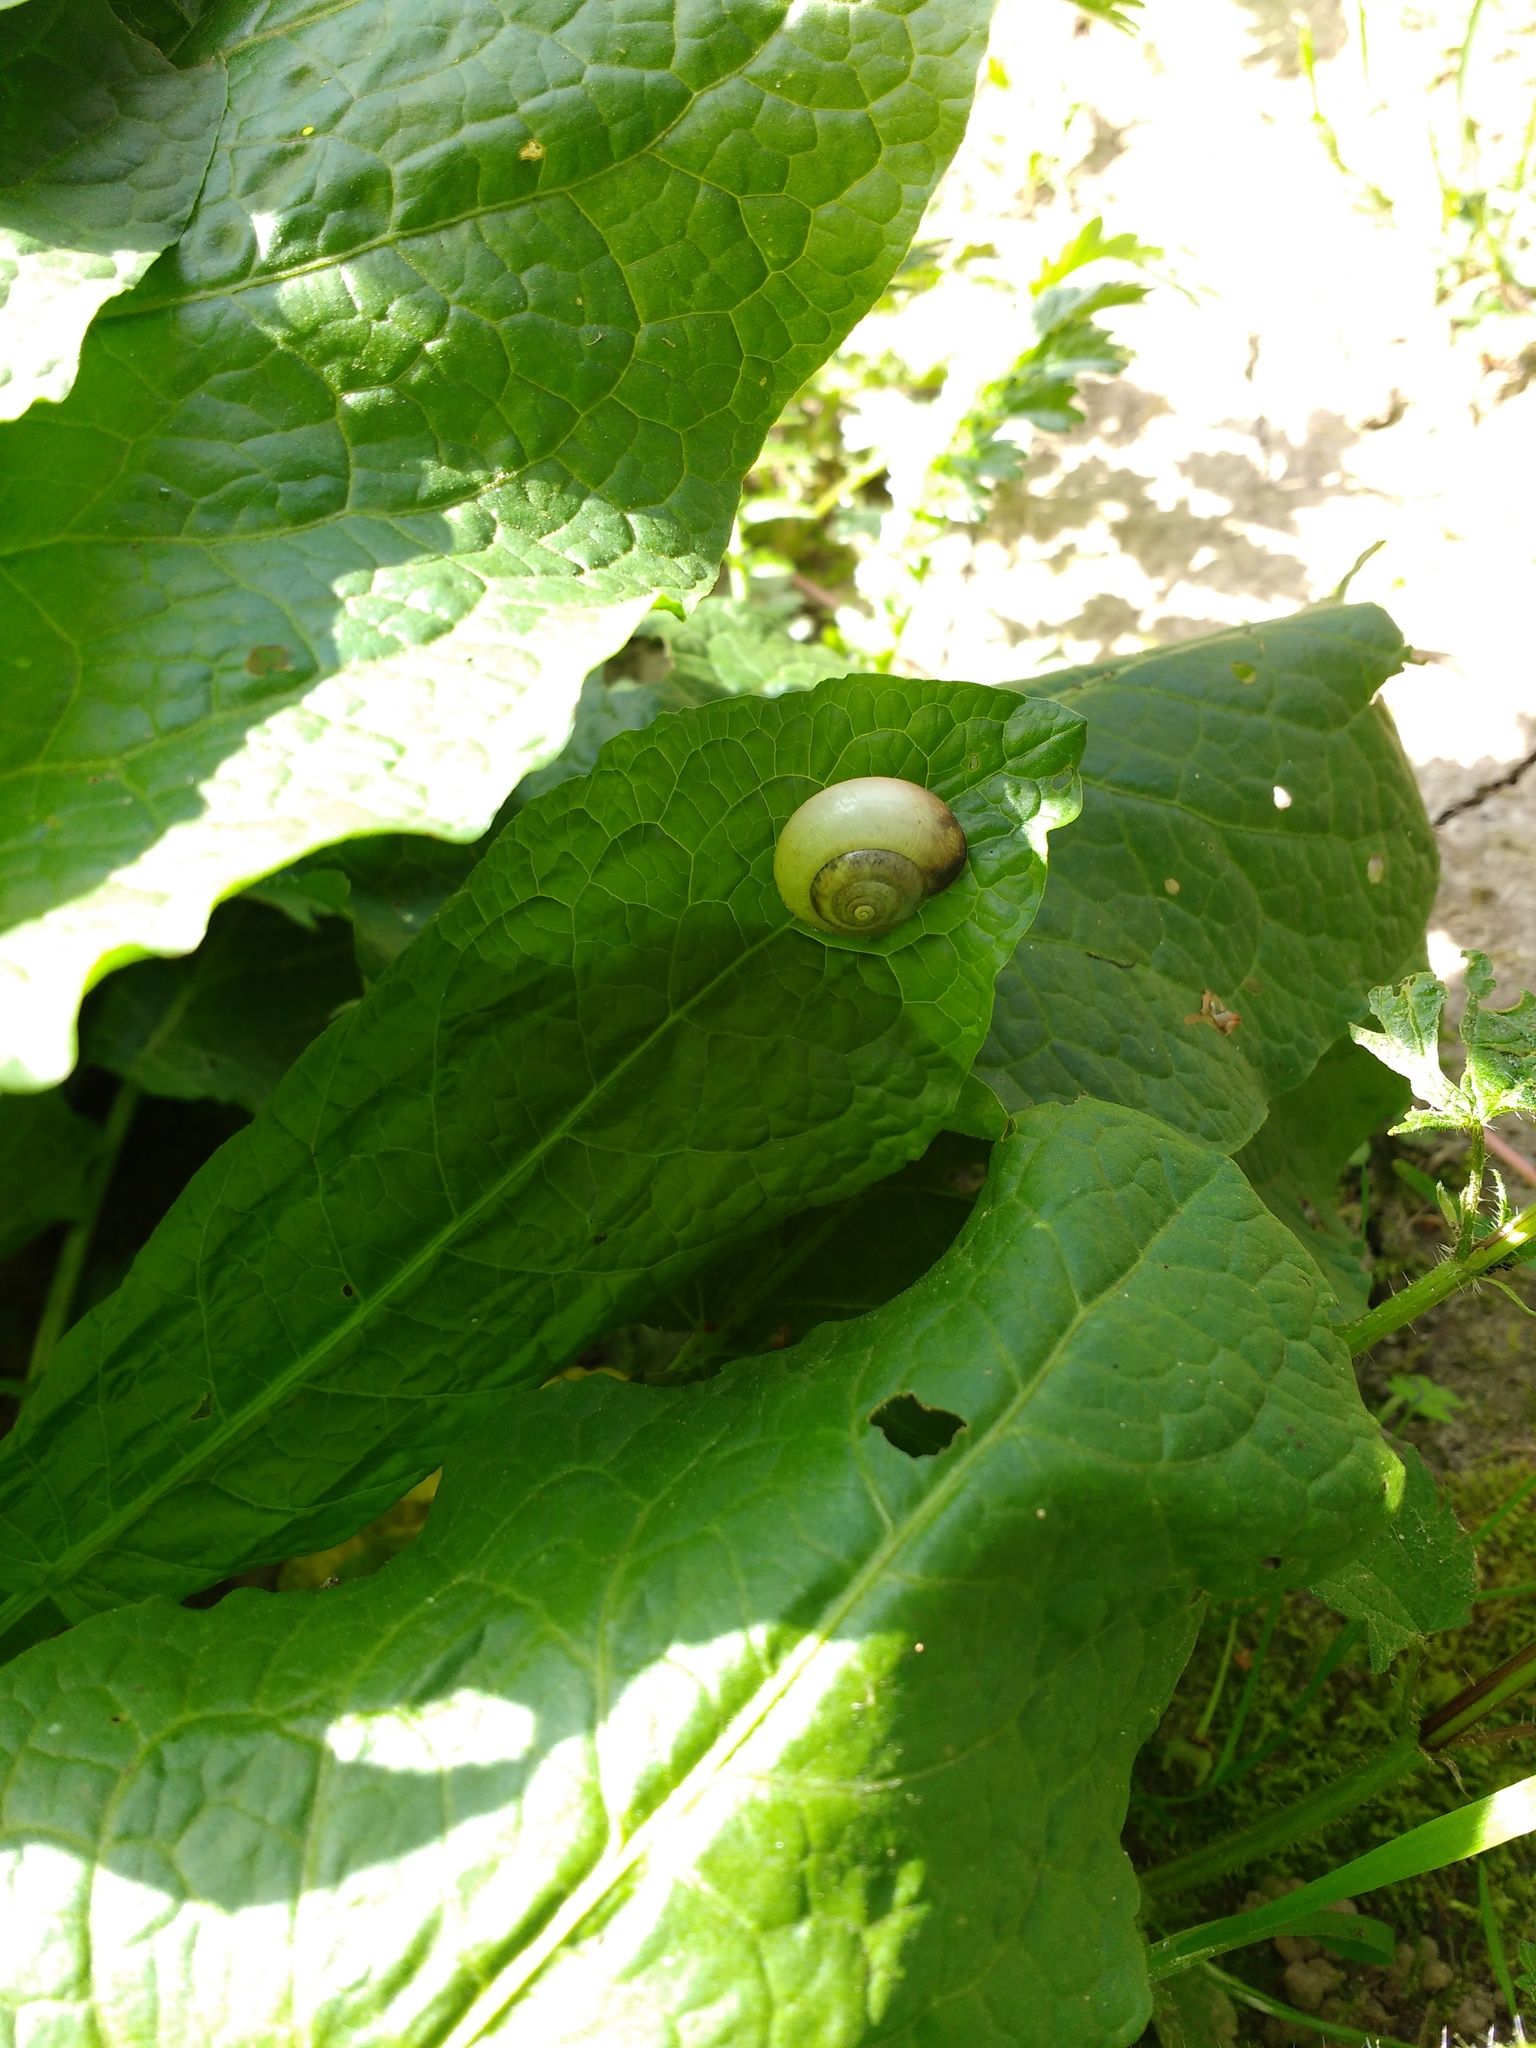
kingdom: Animalia
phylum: Mollusca
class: Gastropoda
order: Stylommatophora
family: Hygromiidae
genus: Monacha
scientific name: Monacha cantiana
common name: Kentish snail
